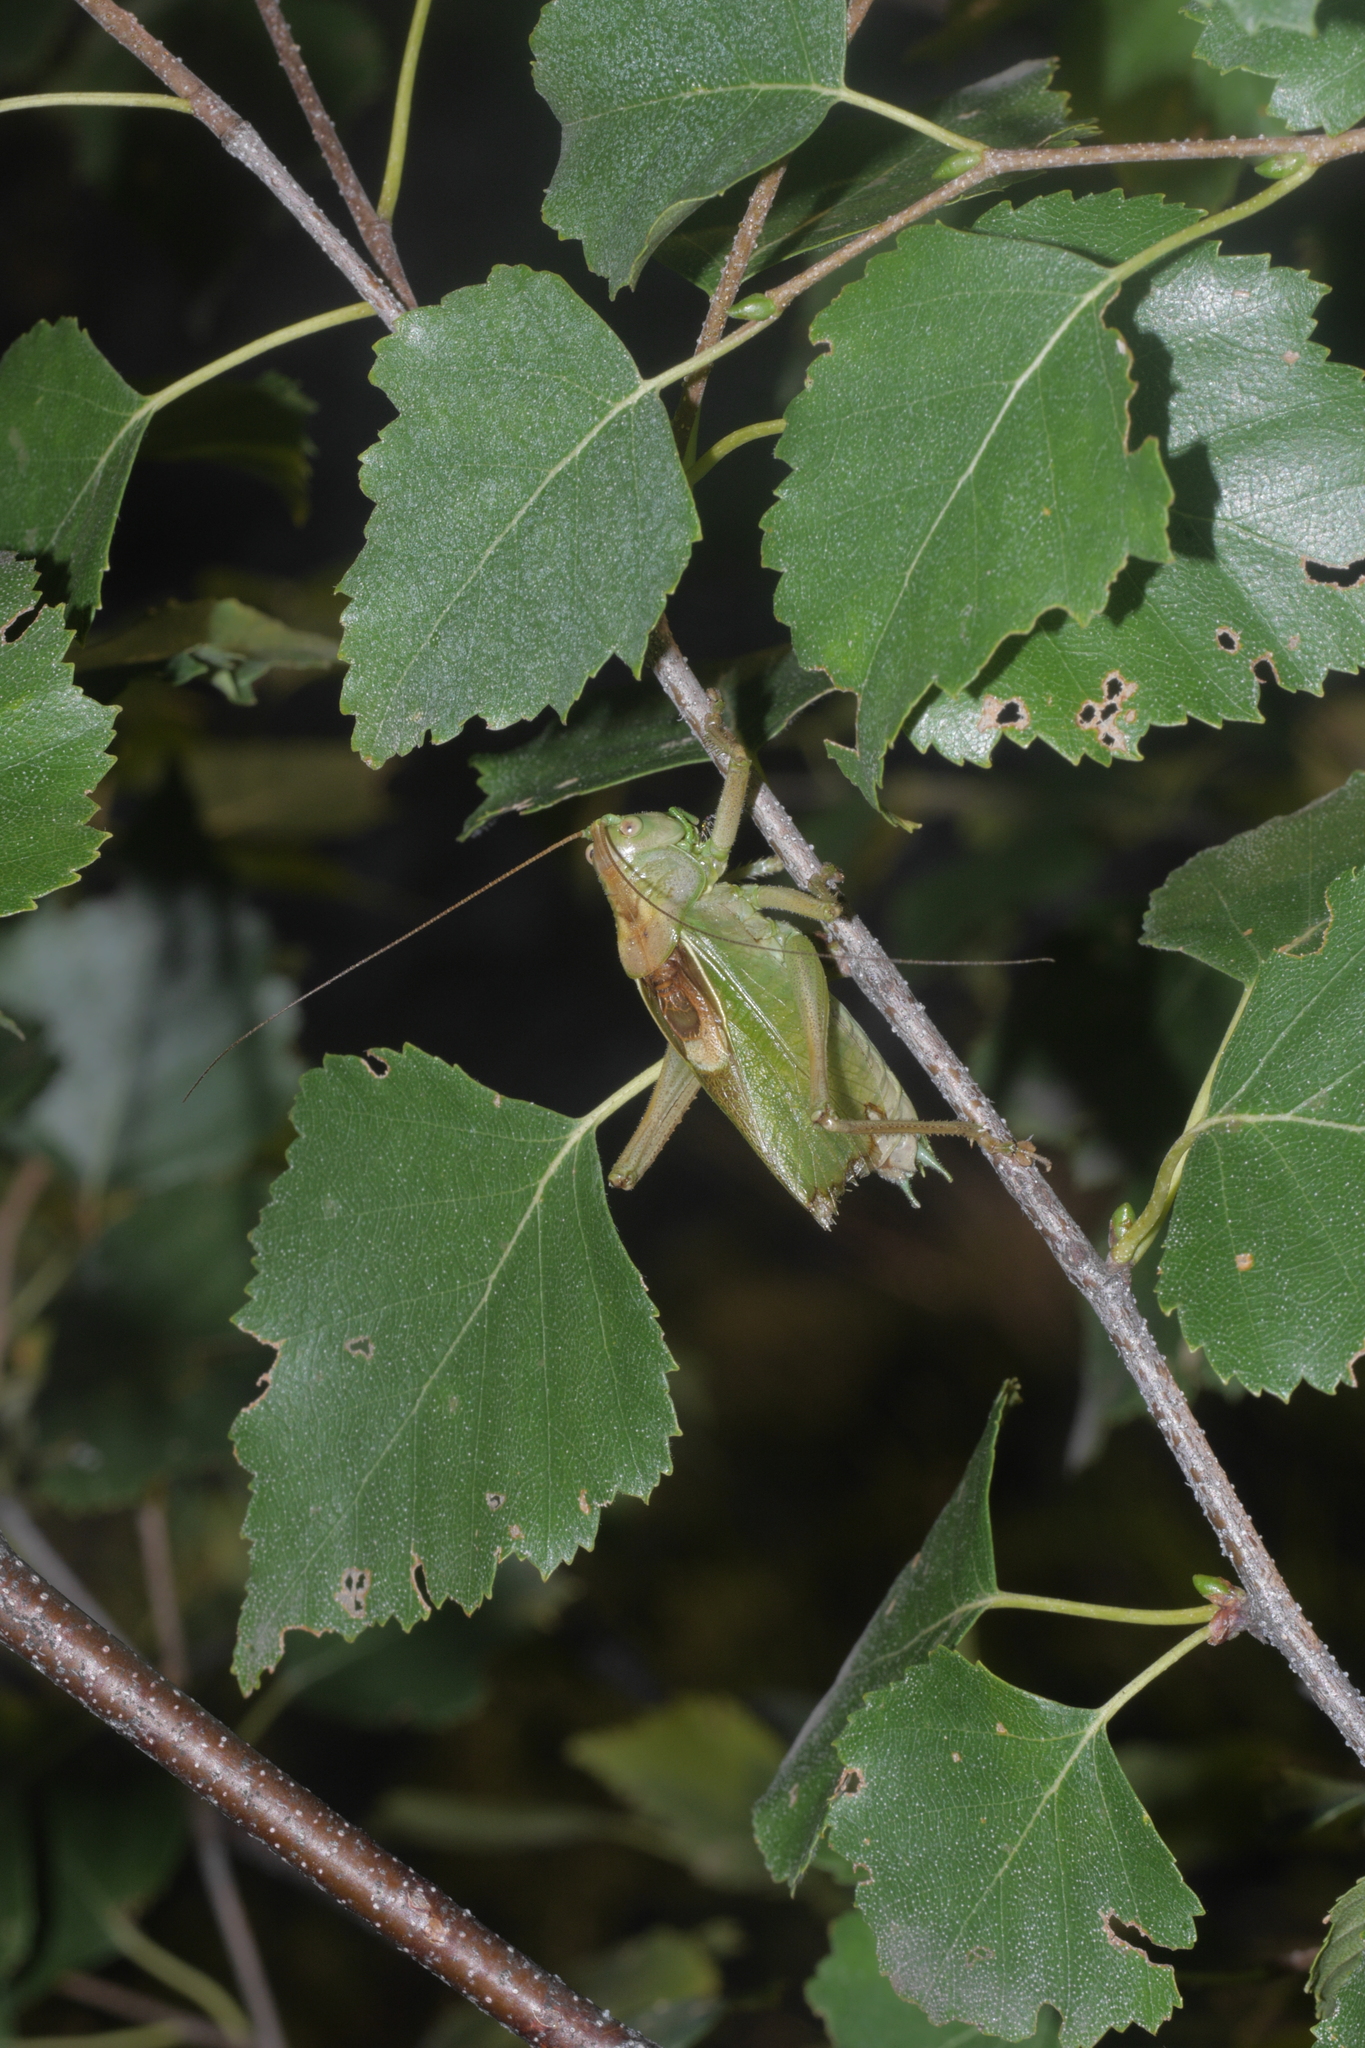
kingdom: Animalia
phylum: Arthropoda
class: Insecta
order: Orthoptera
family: Tettigoniidae
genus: Tettigonia
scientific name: Tettigonia cantans
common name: Upland green bush-cricket
